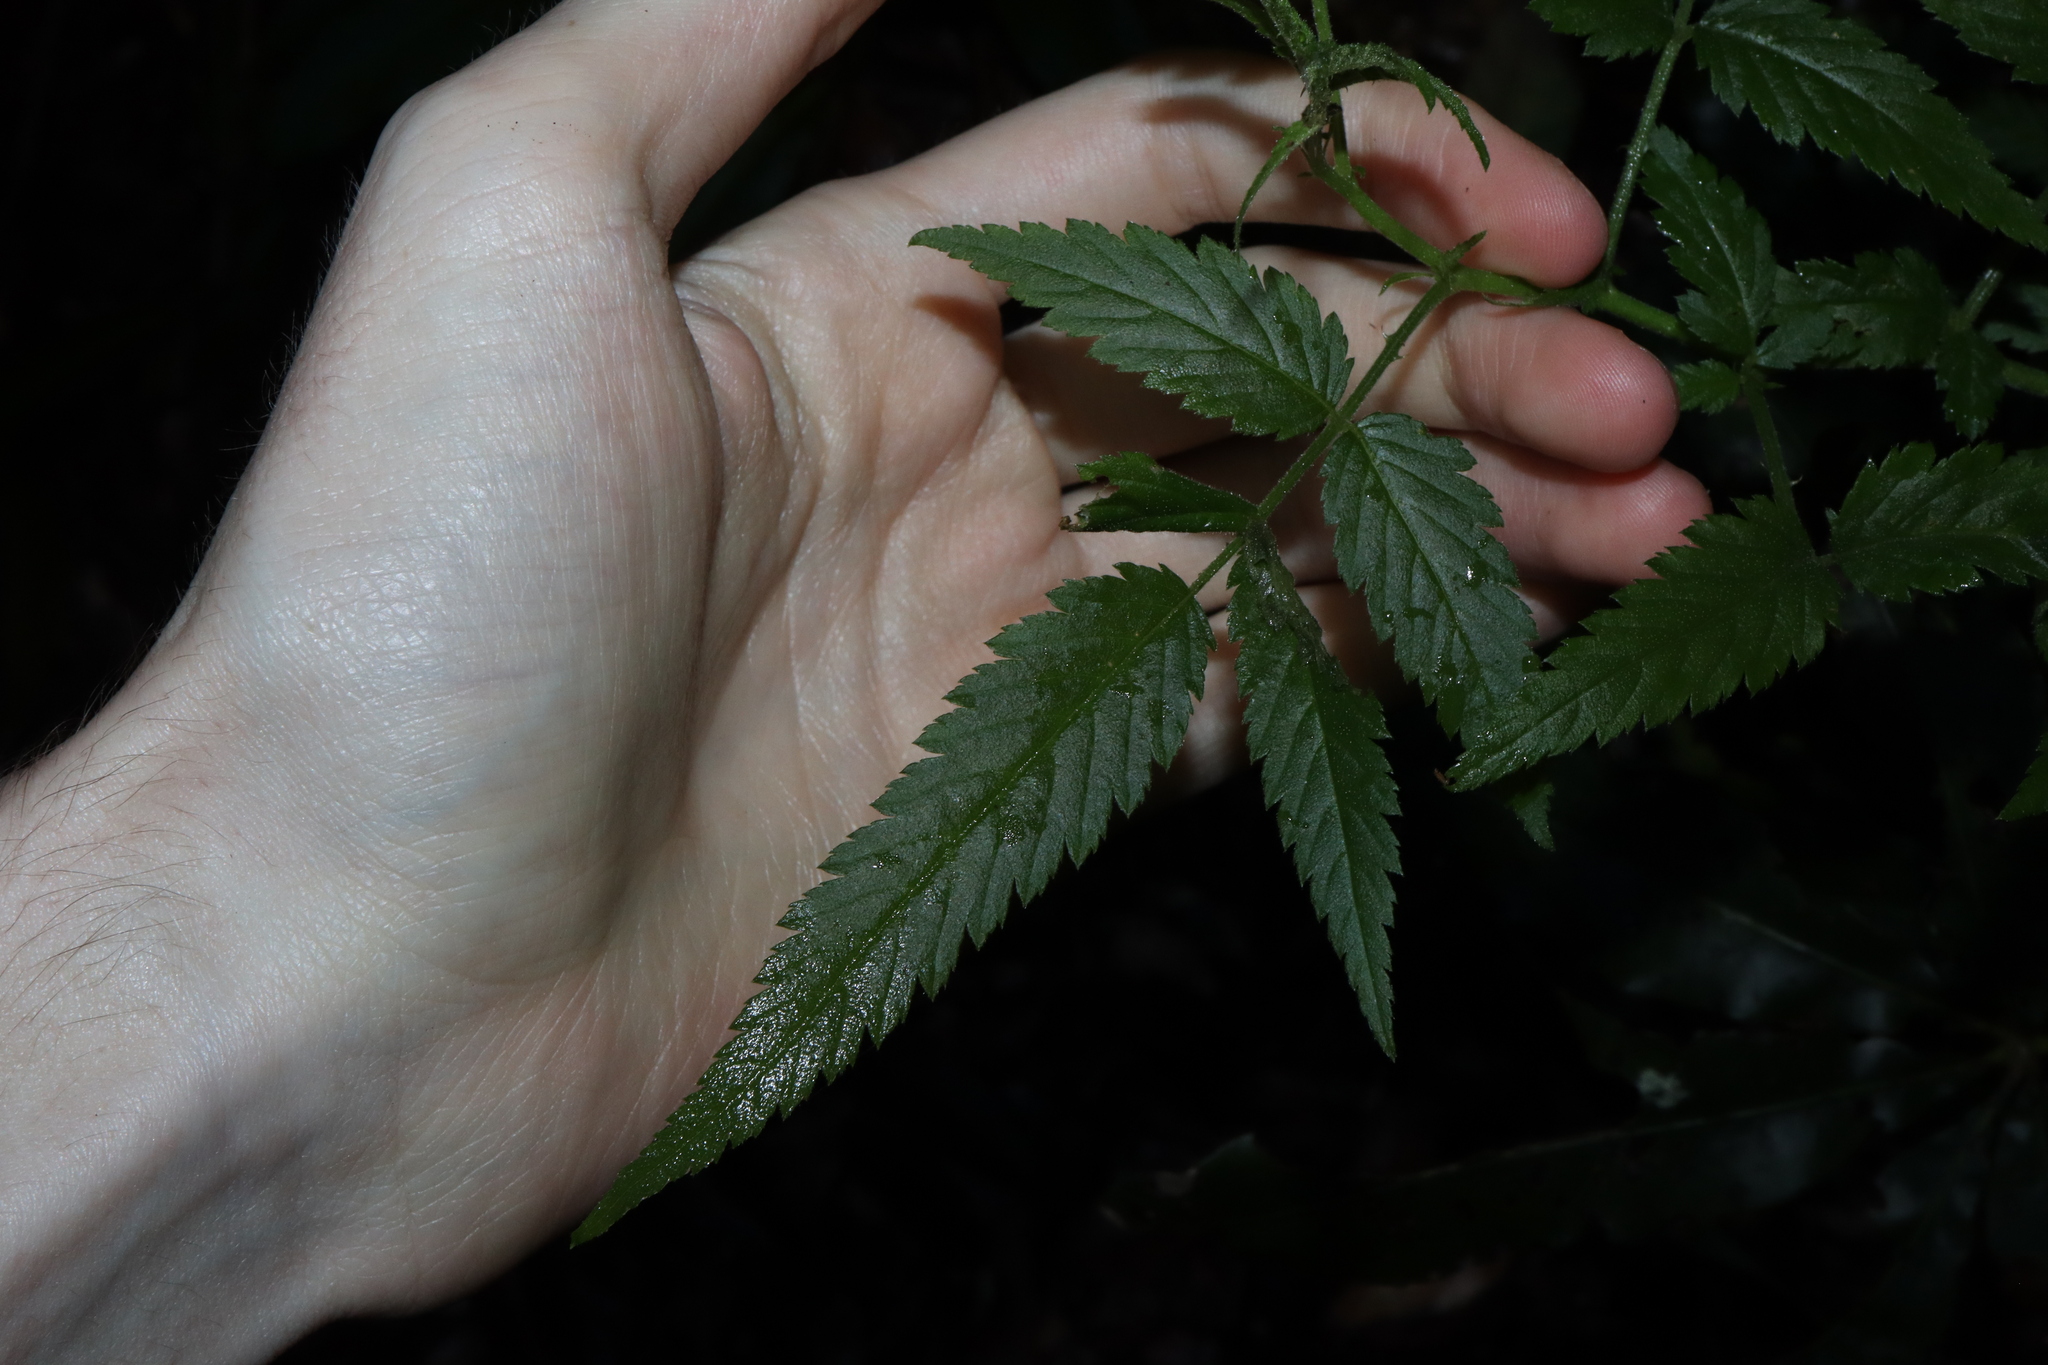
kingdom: Plantae
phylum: Tracheophyta
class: Magnoliopsida
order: Rosales
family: Rosaceae
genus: Rubus
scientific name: Rubus rosifolius
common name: Roseleaf raspberry
